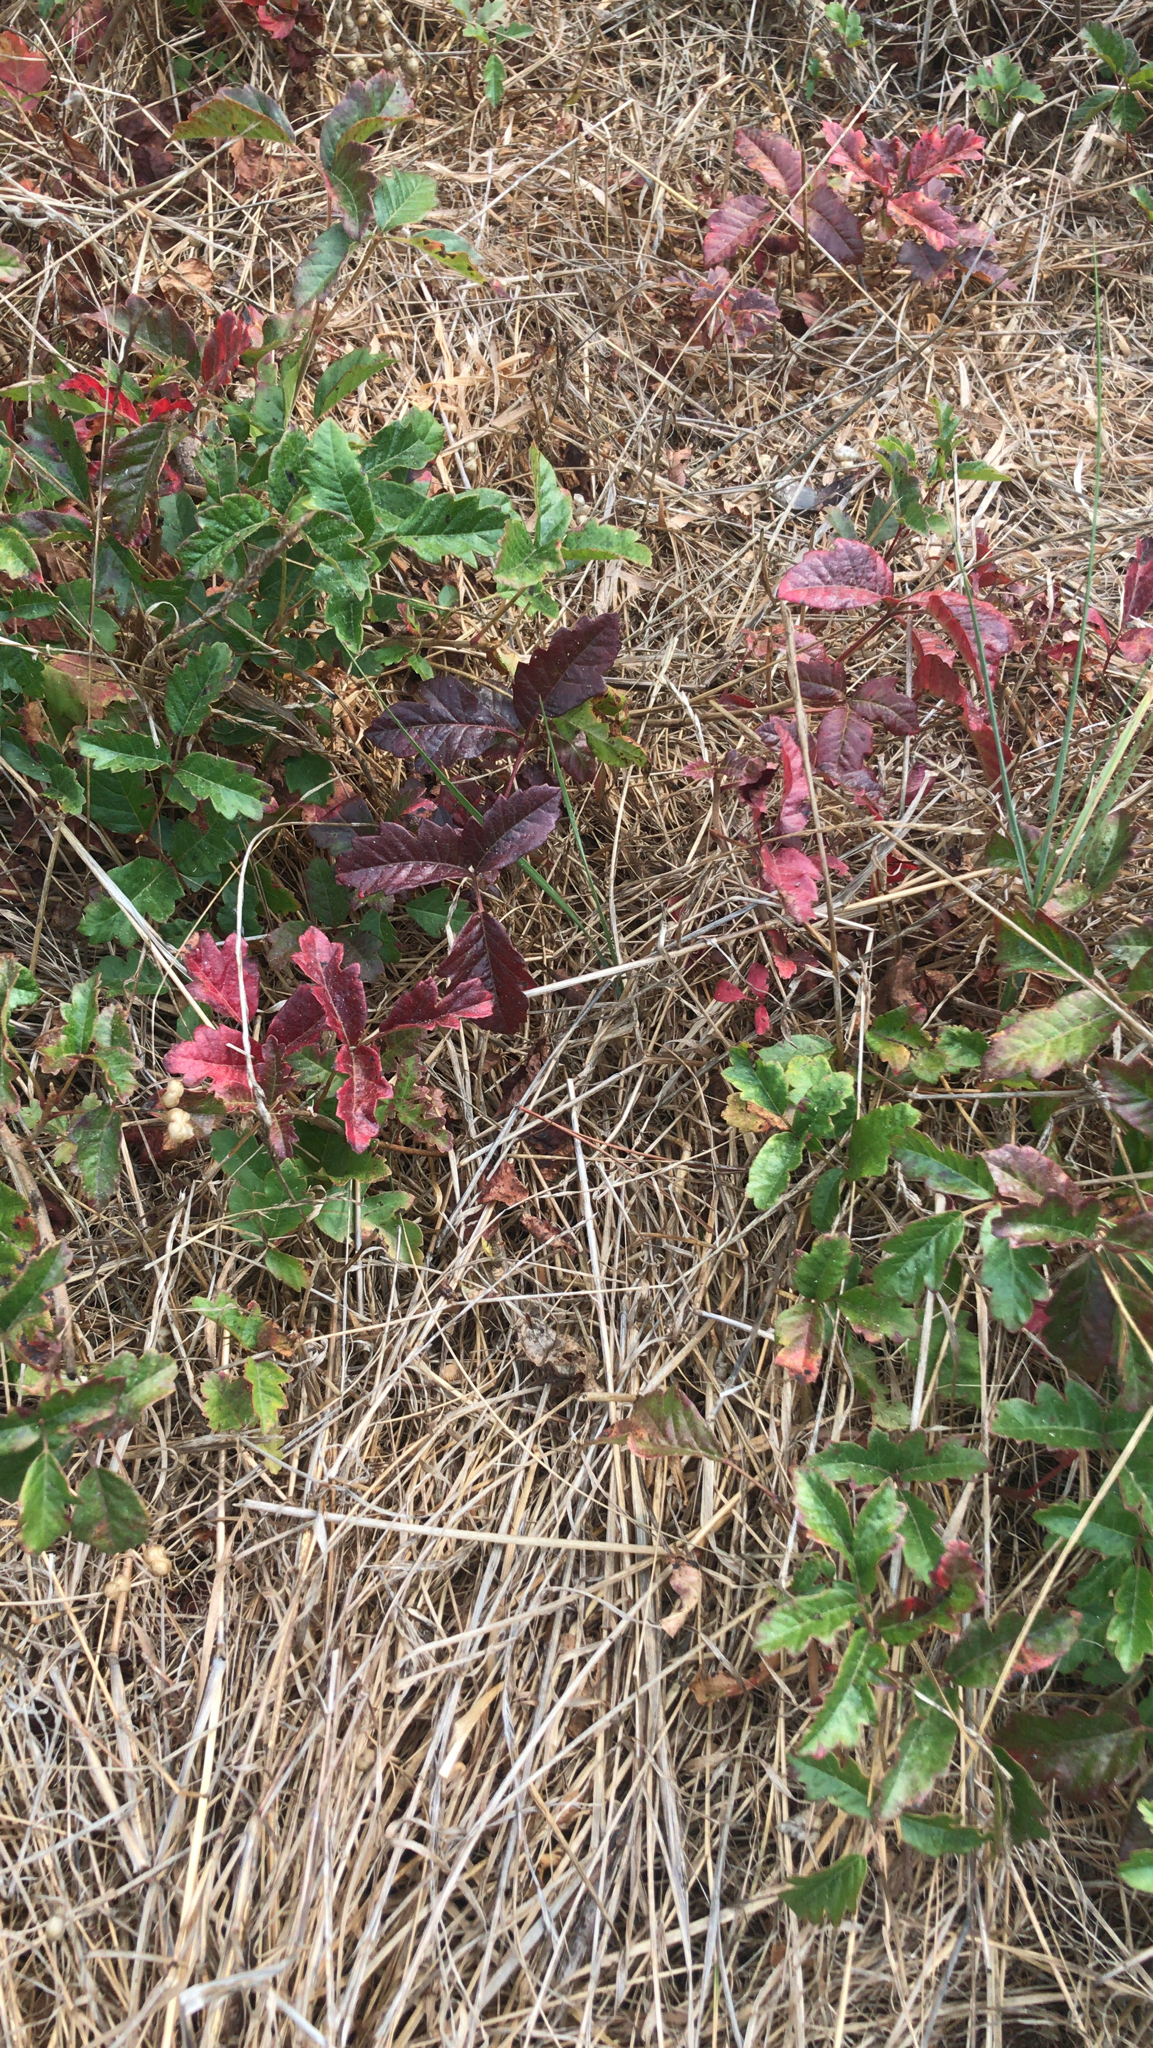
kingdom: Plantae
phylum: Tracheophyta
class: Magnoliopsida
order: Sapindales
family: Anacardiaceae
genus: Toxicodendron
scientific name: Toxicodendron diversilobum
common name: Pacific poison-oak
